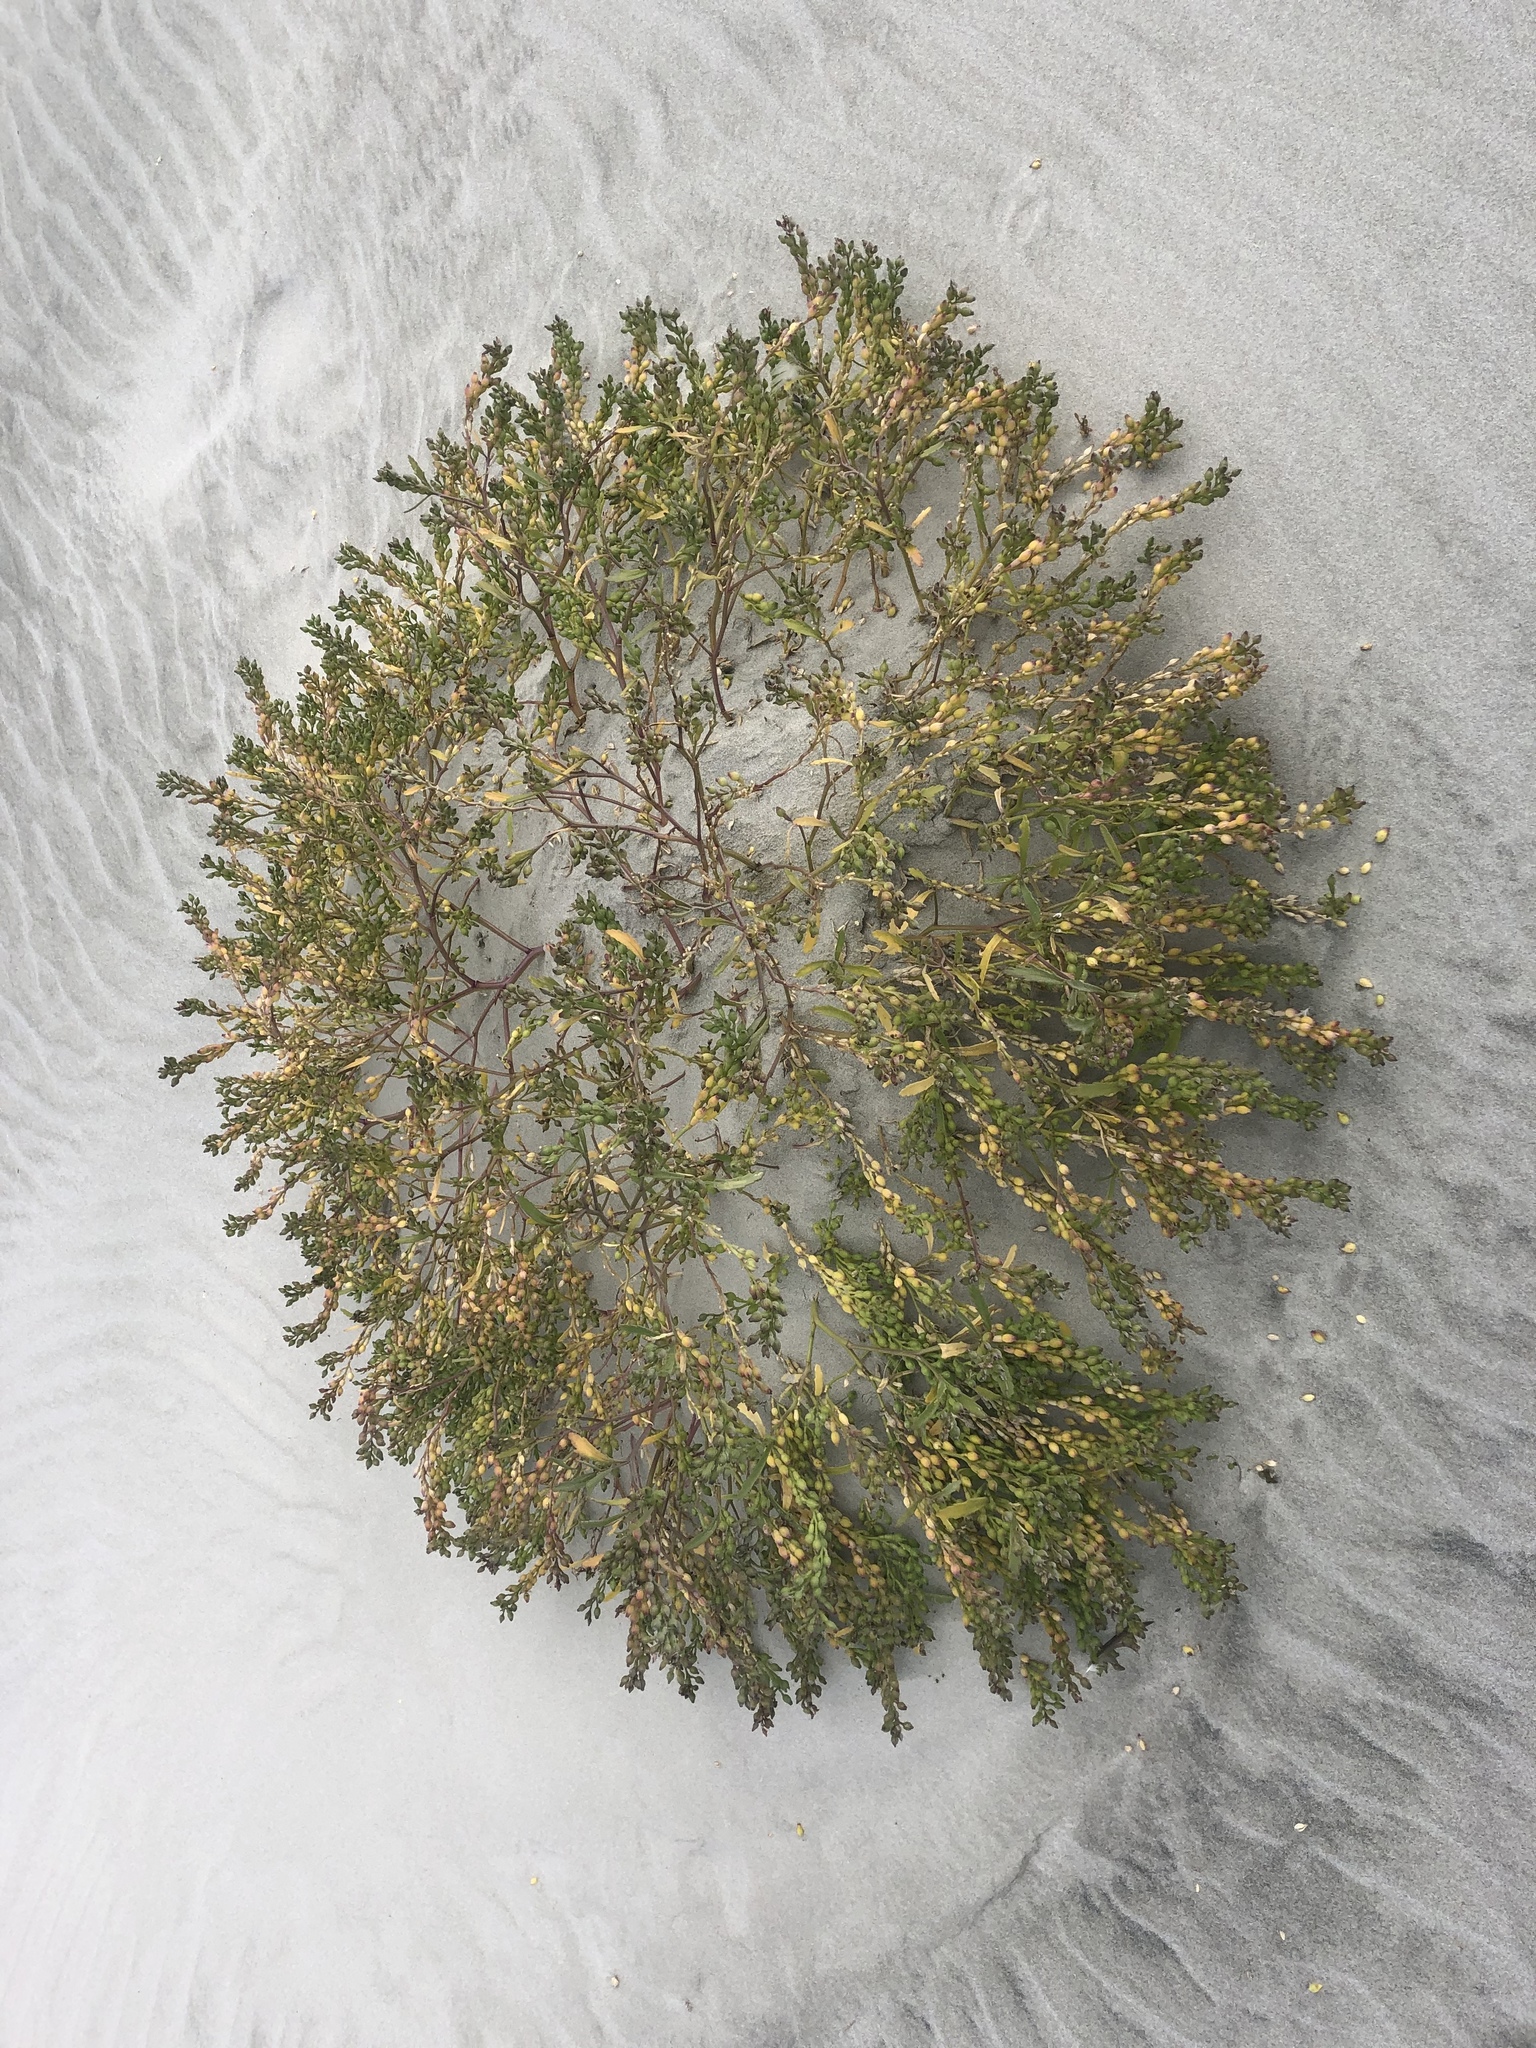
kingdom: Plantae
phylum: Tracheophyta
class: Magnoliopsida
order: Brassicales
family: Brassicaceae
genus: Cakile
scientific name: Cakile edentula
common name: American sea rocket
